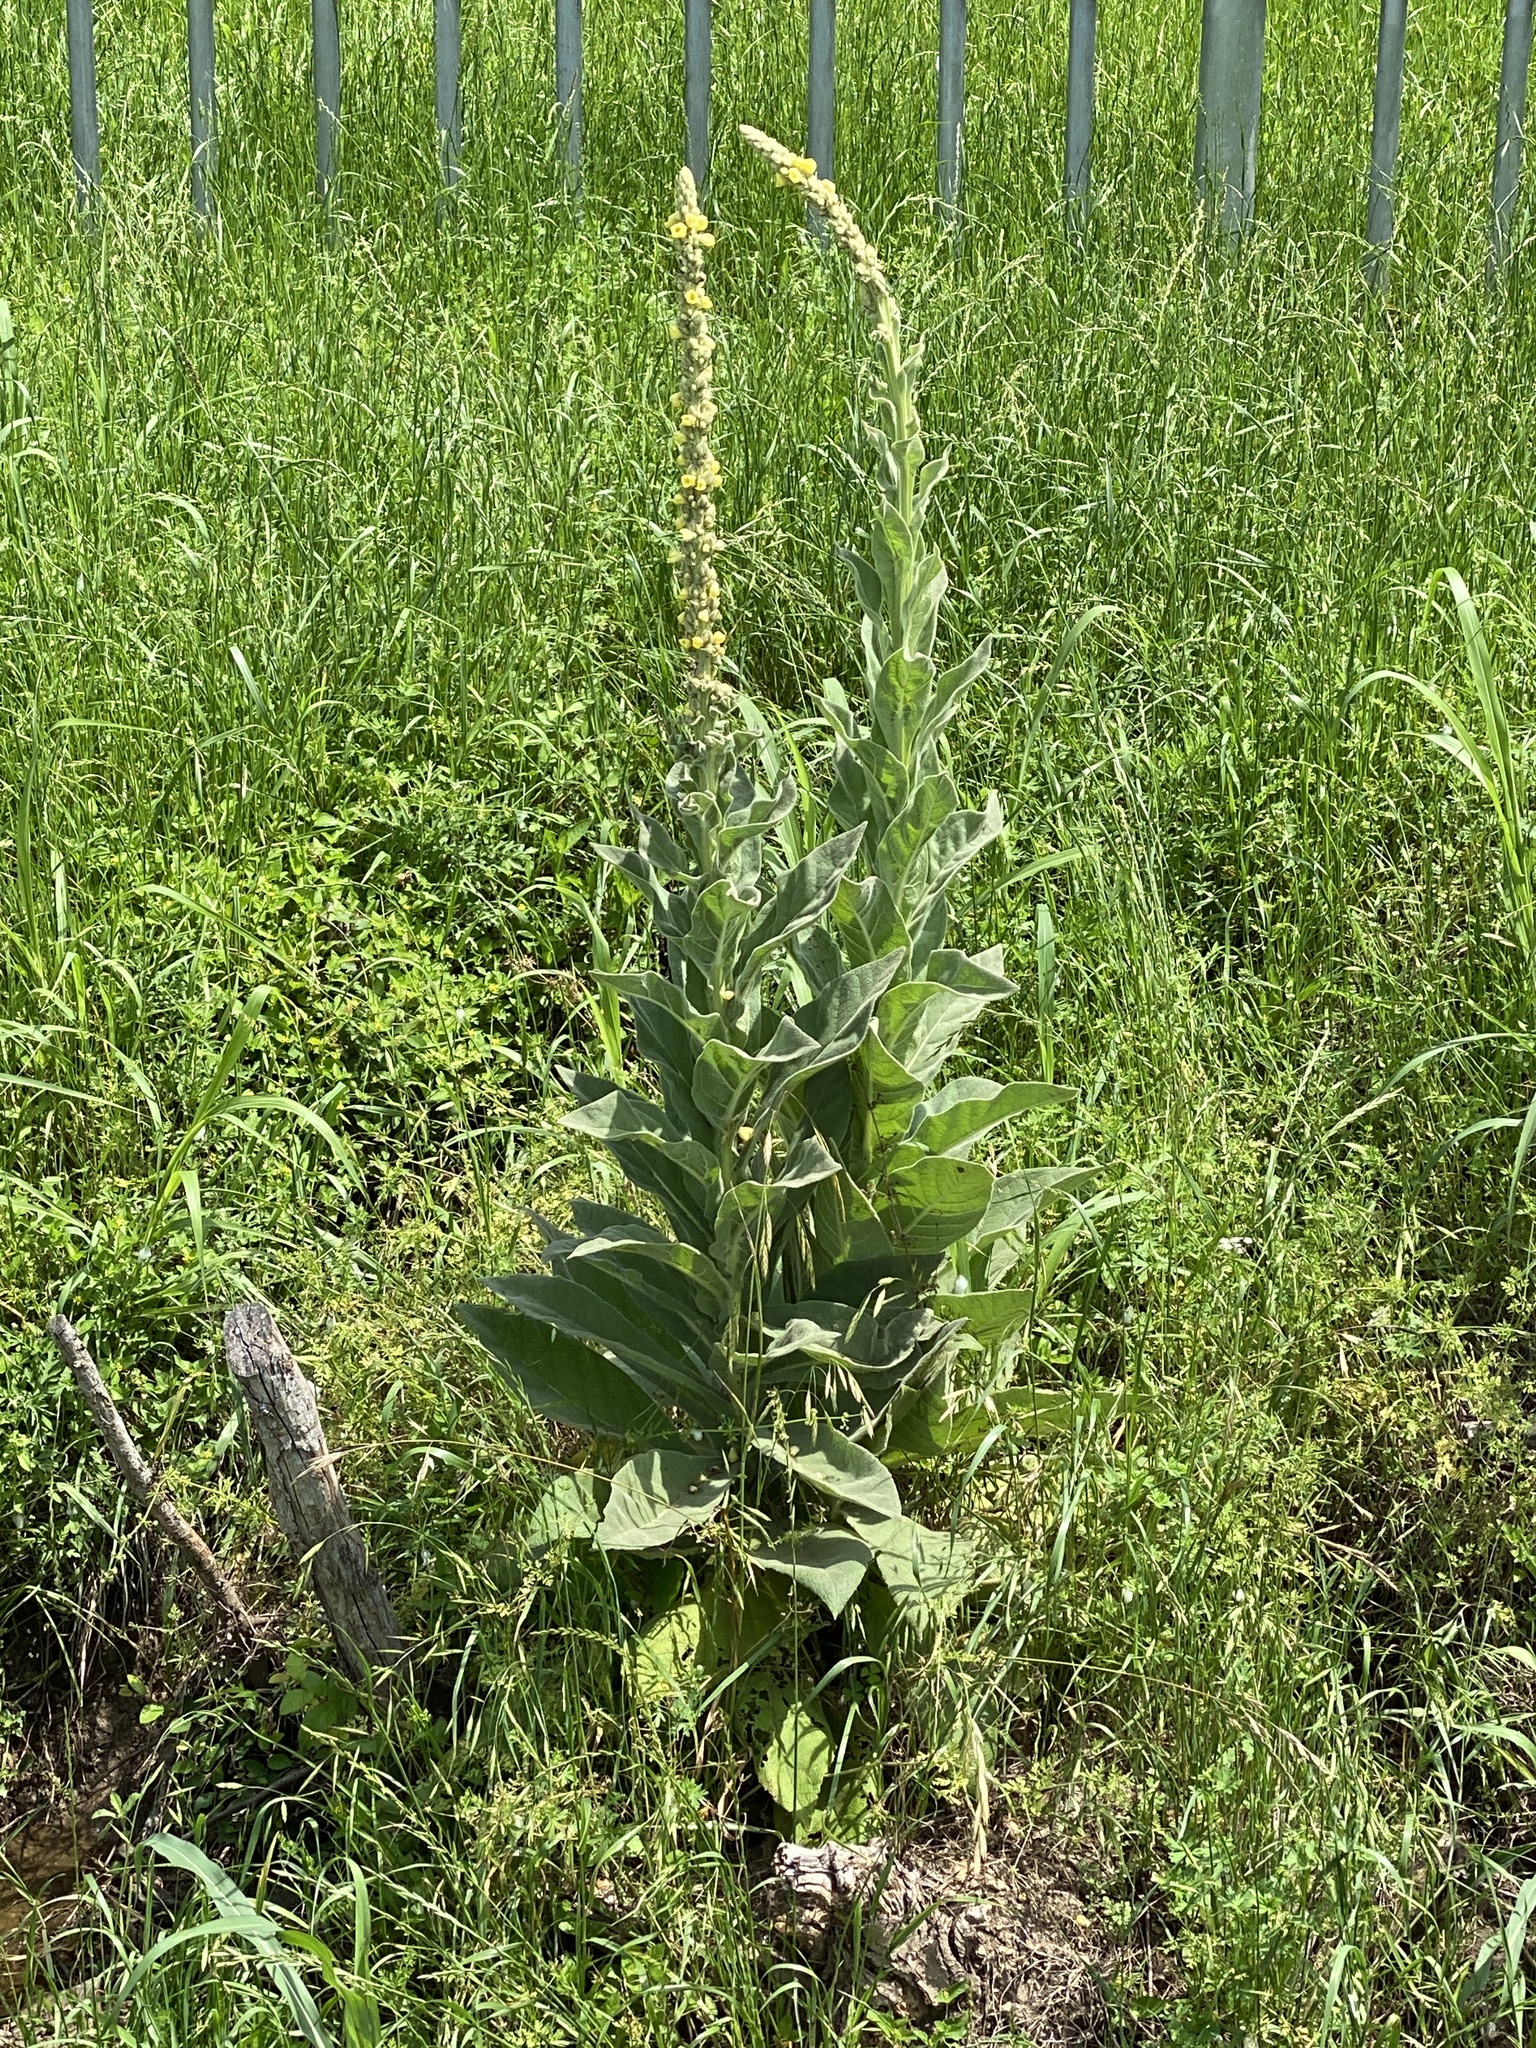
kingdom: Plantae
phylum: Tracheophyta
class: Magnoliopsida
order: Lamiales
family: Scrophulariaceae
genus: Verbascum
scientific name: Verbascum thapsus
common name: Common mullein
